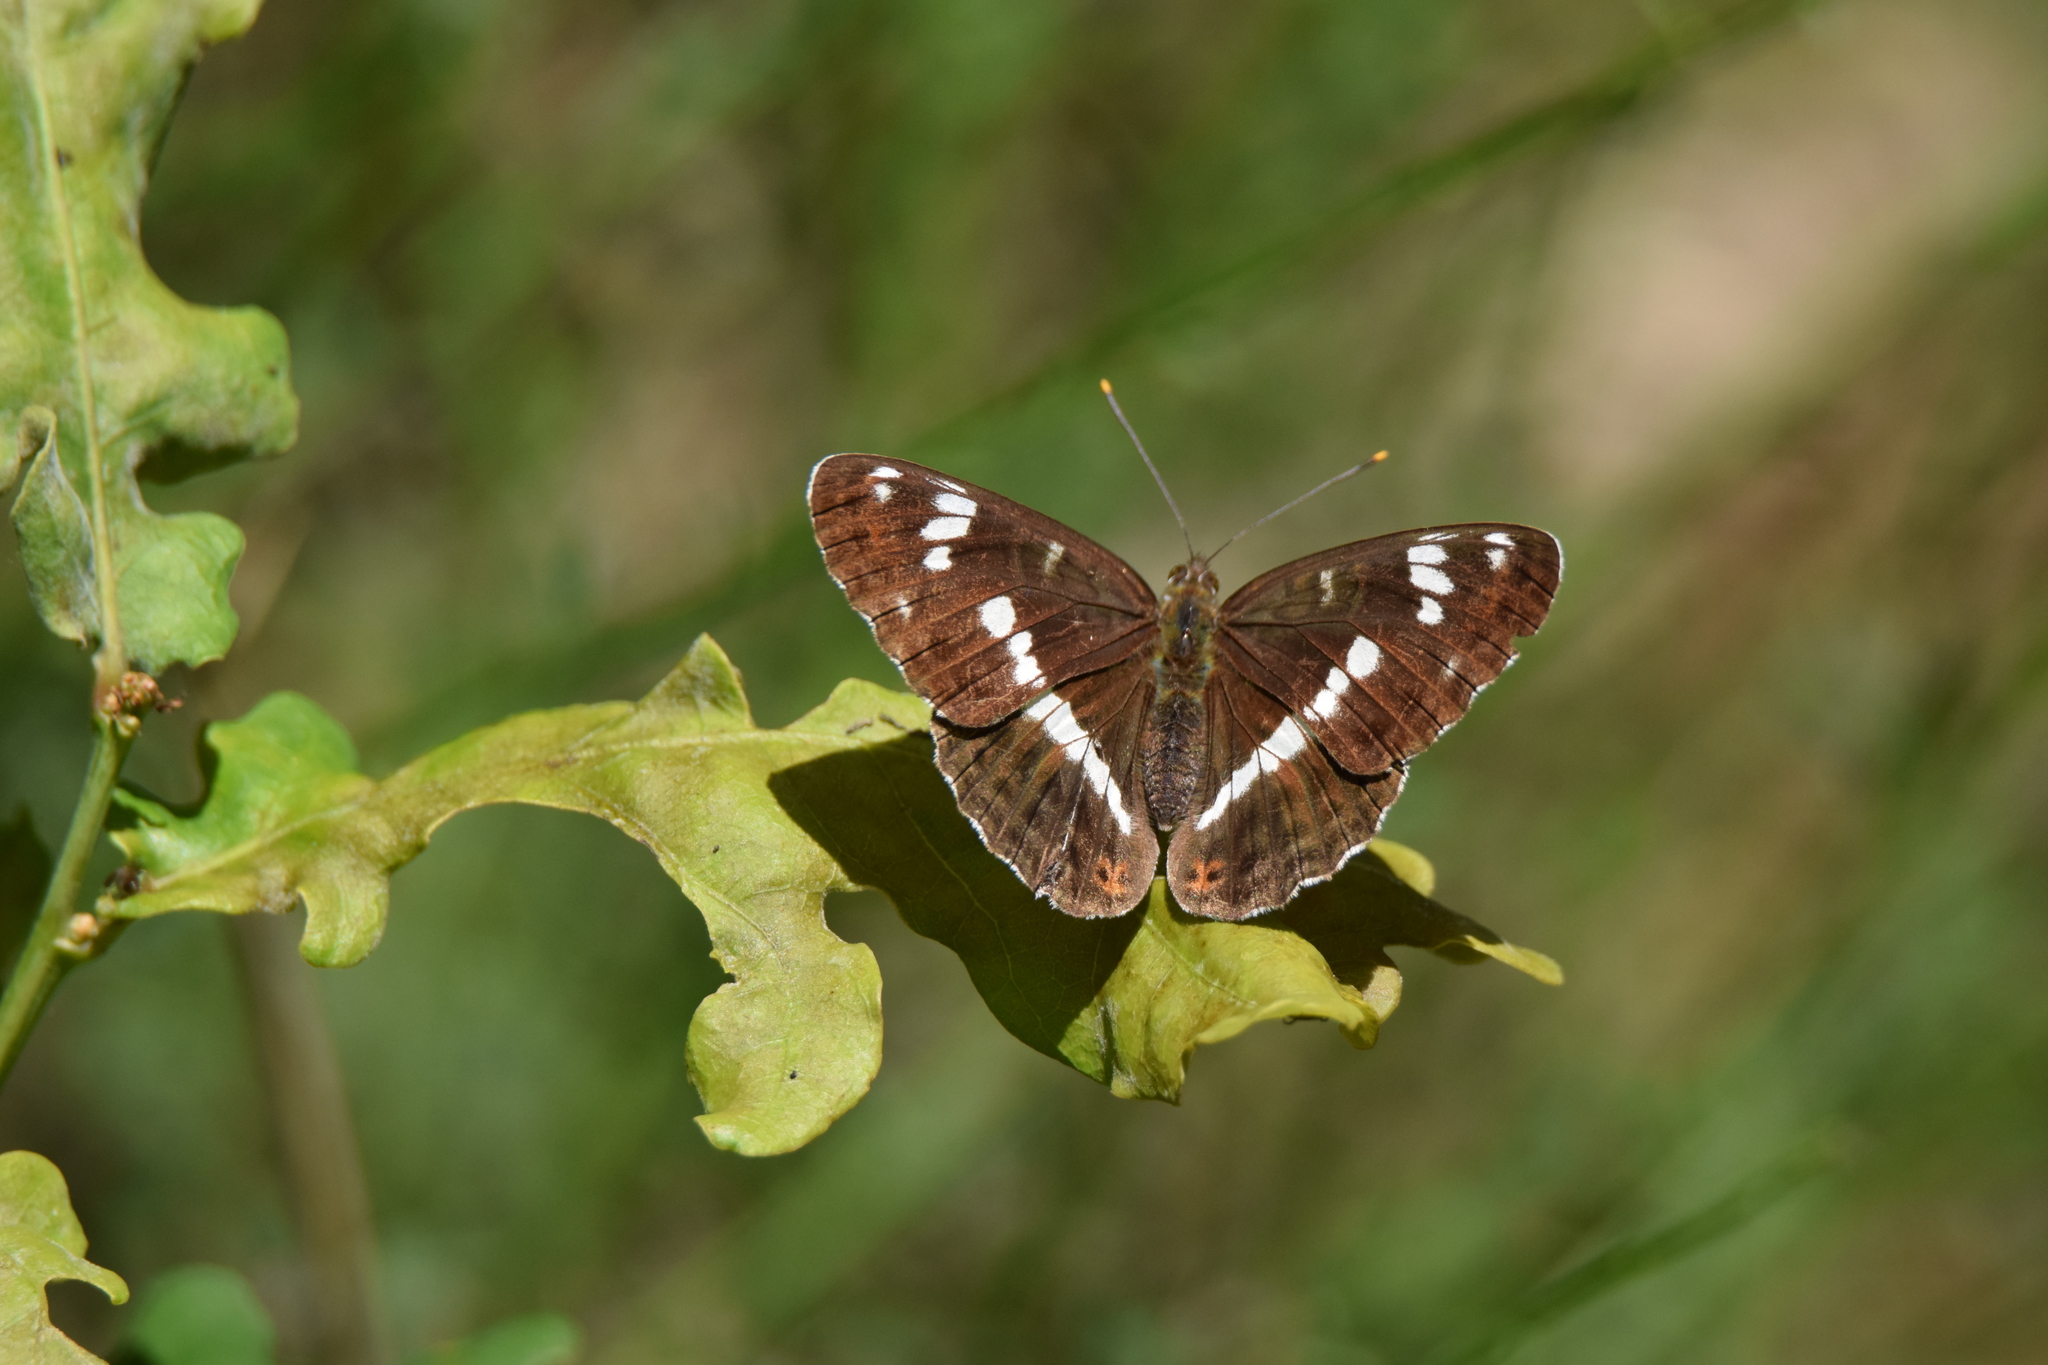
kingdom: Animalia
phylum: Arthropoda
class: Insecta
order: Lepidoptera
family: Nymphalidae
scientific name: Nymphalidae
